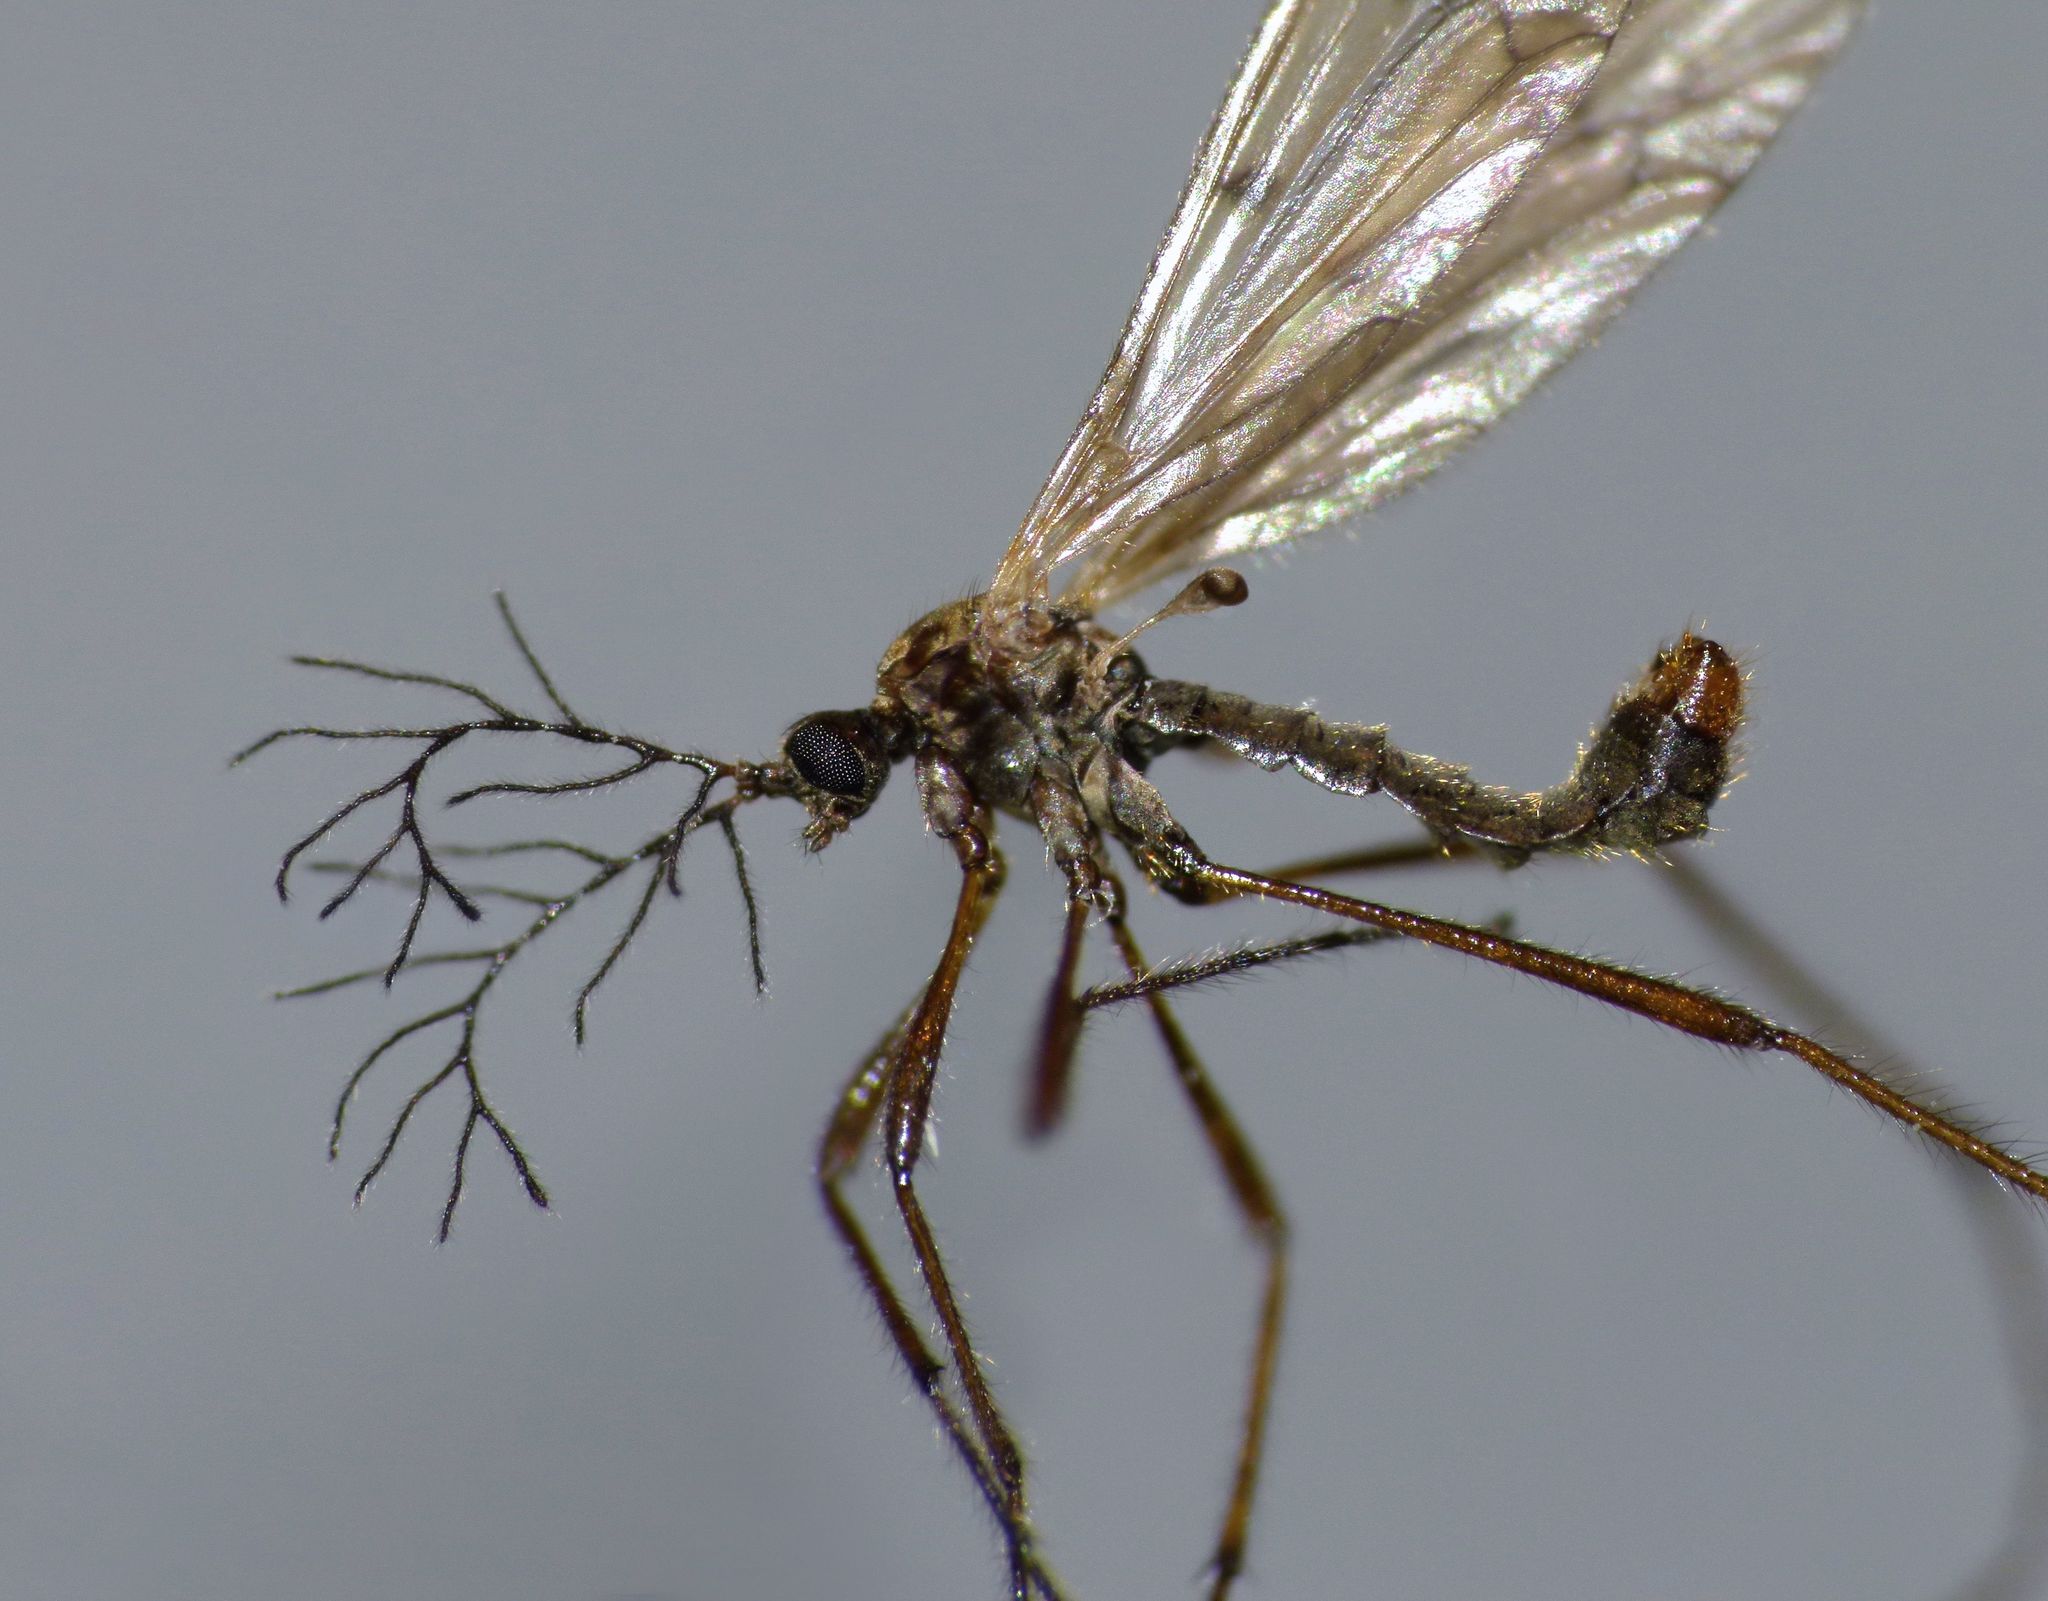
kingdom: Animalia
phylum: Arthropoda
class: Insecta
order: Diptera
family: Limoniidae
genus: Gynoplistia
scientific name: Gynoplistia otagana
